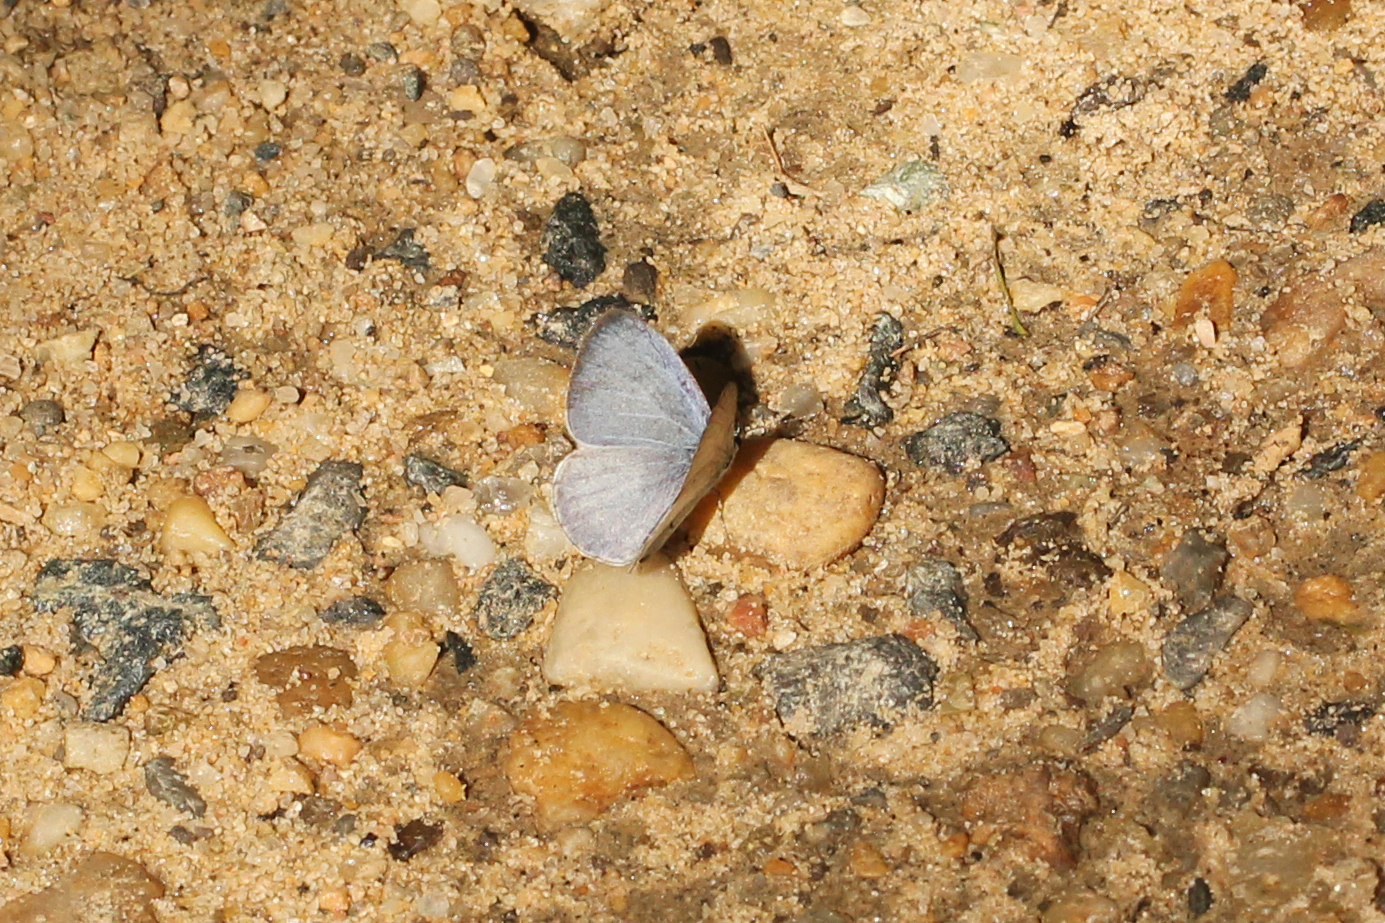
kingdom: Animalia
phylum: Arthropoda
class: Insecta
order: Lepidoptera
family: Lycaenidae
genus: Cyaniris
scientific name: Cyaniris neglecta
